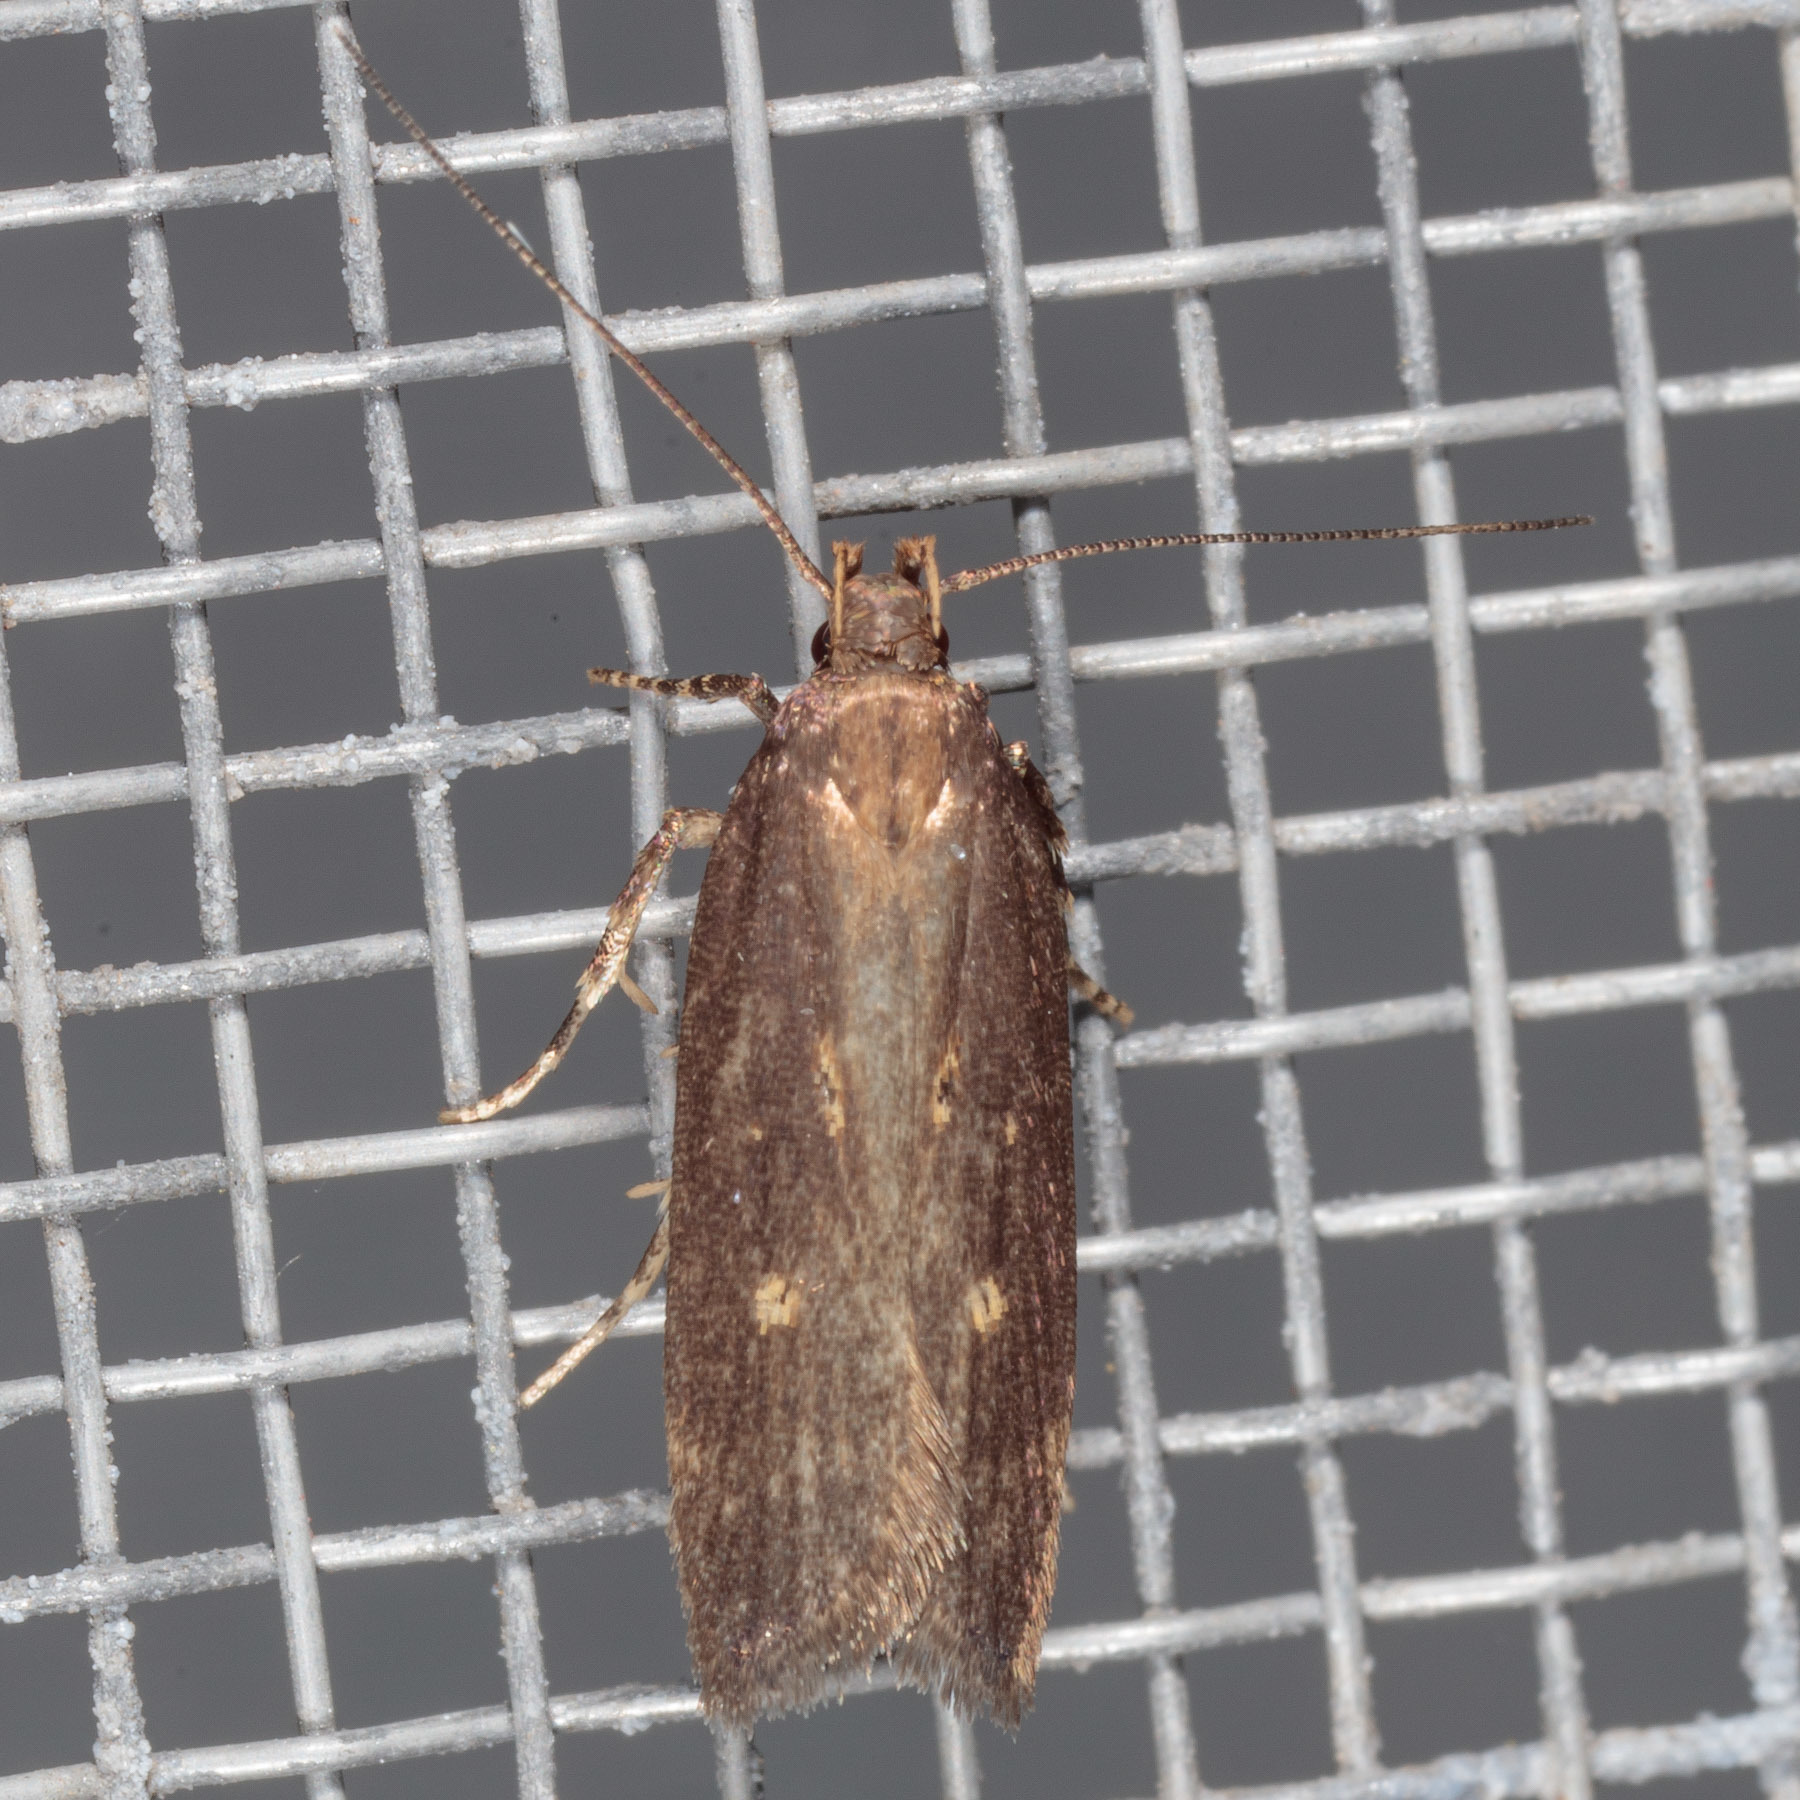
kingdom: Animalia
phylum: Arthropoda
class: Insecta
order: Lepidoptera
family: Gelechiidae
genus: Chionodes
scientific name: Chionodes discoocellella
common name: Eye-ringed chionodes moth
